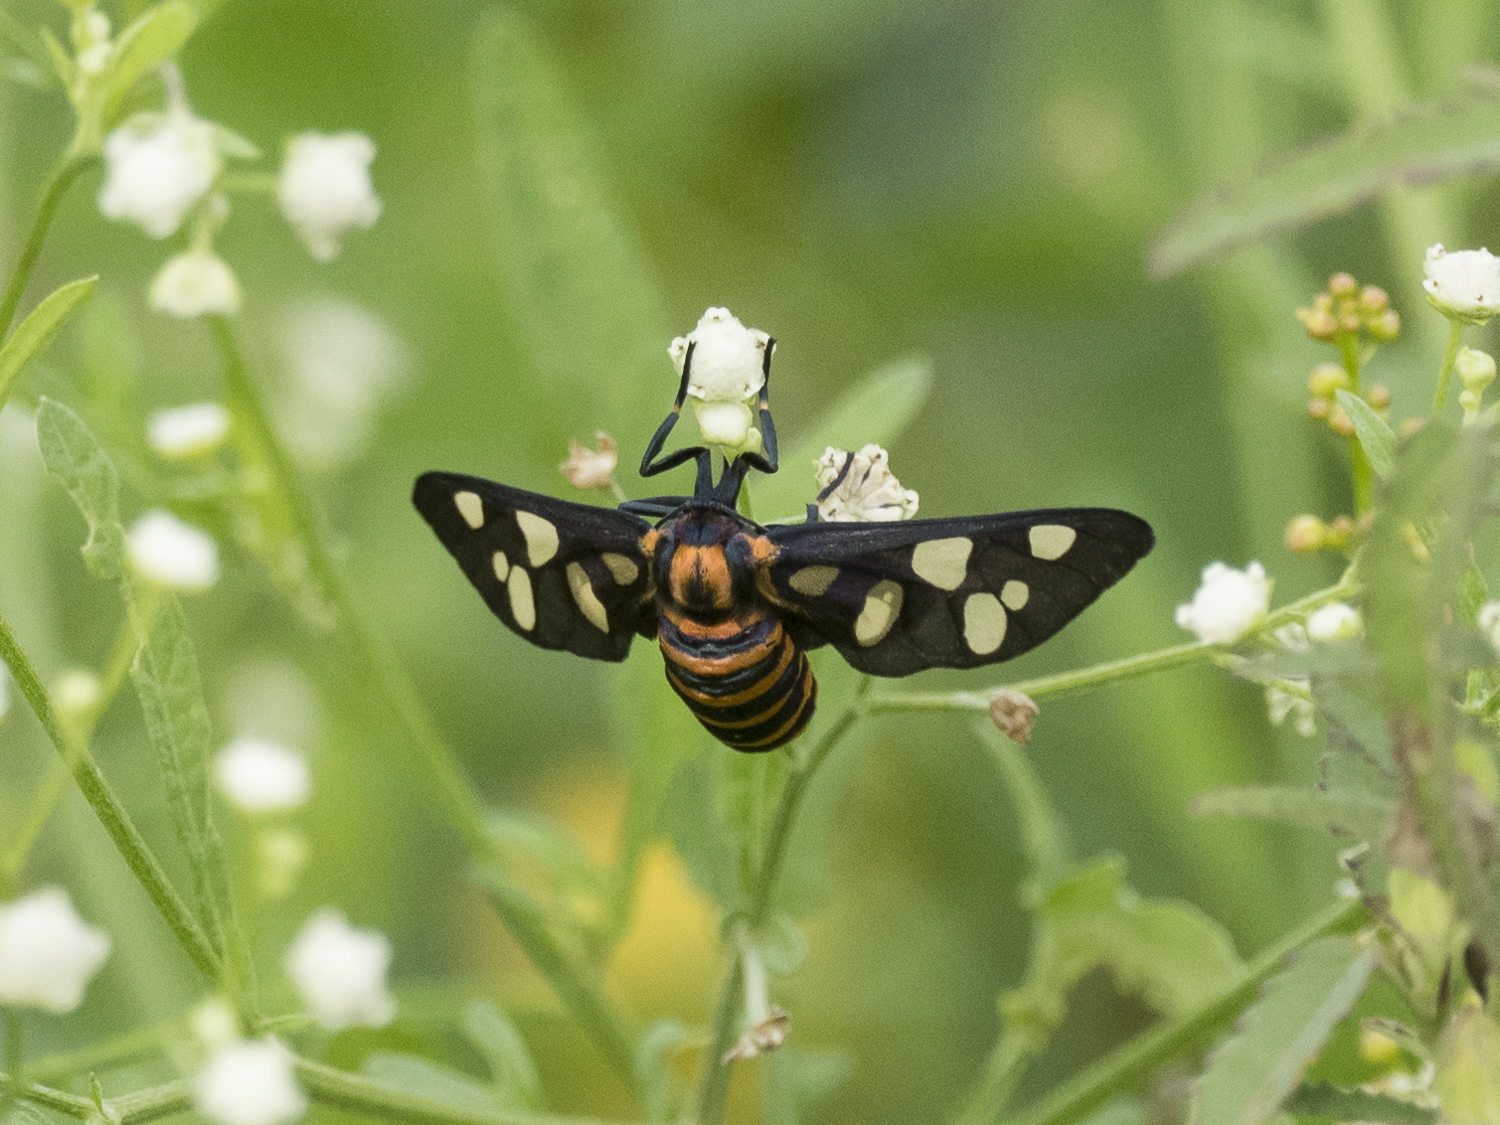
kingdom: Animalia
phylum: Arthropoda
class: Insecta
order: Lepidoptera
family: Erebidae
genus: Amata
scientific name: Amata passalis
